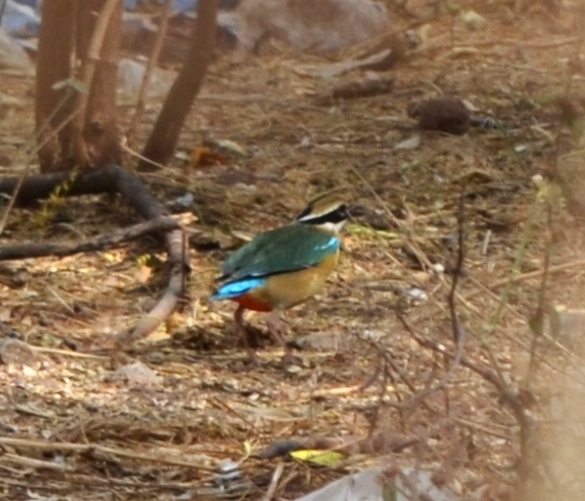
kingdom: Animalia
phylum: Chordata
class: Aves
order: Passeriformes
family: Pittidae
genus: Pitta
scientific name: Pitta brachyura
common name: Indian pitta
